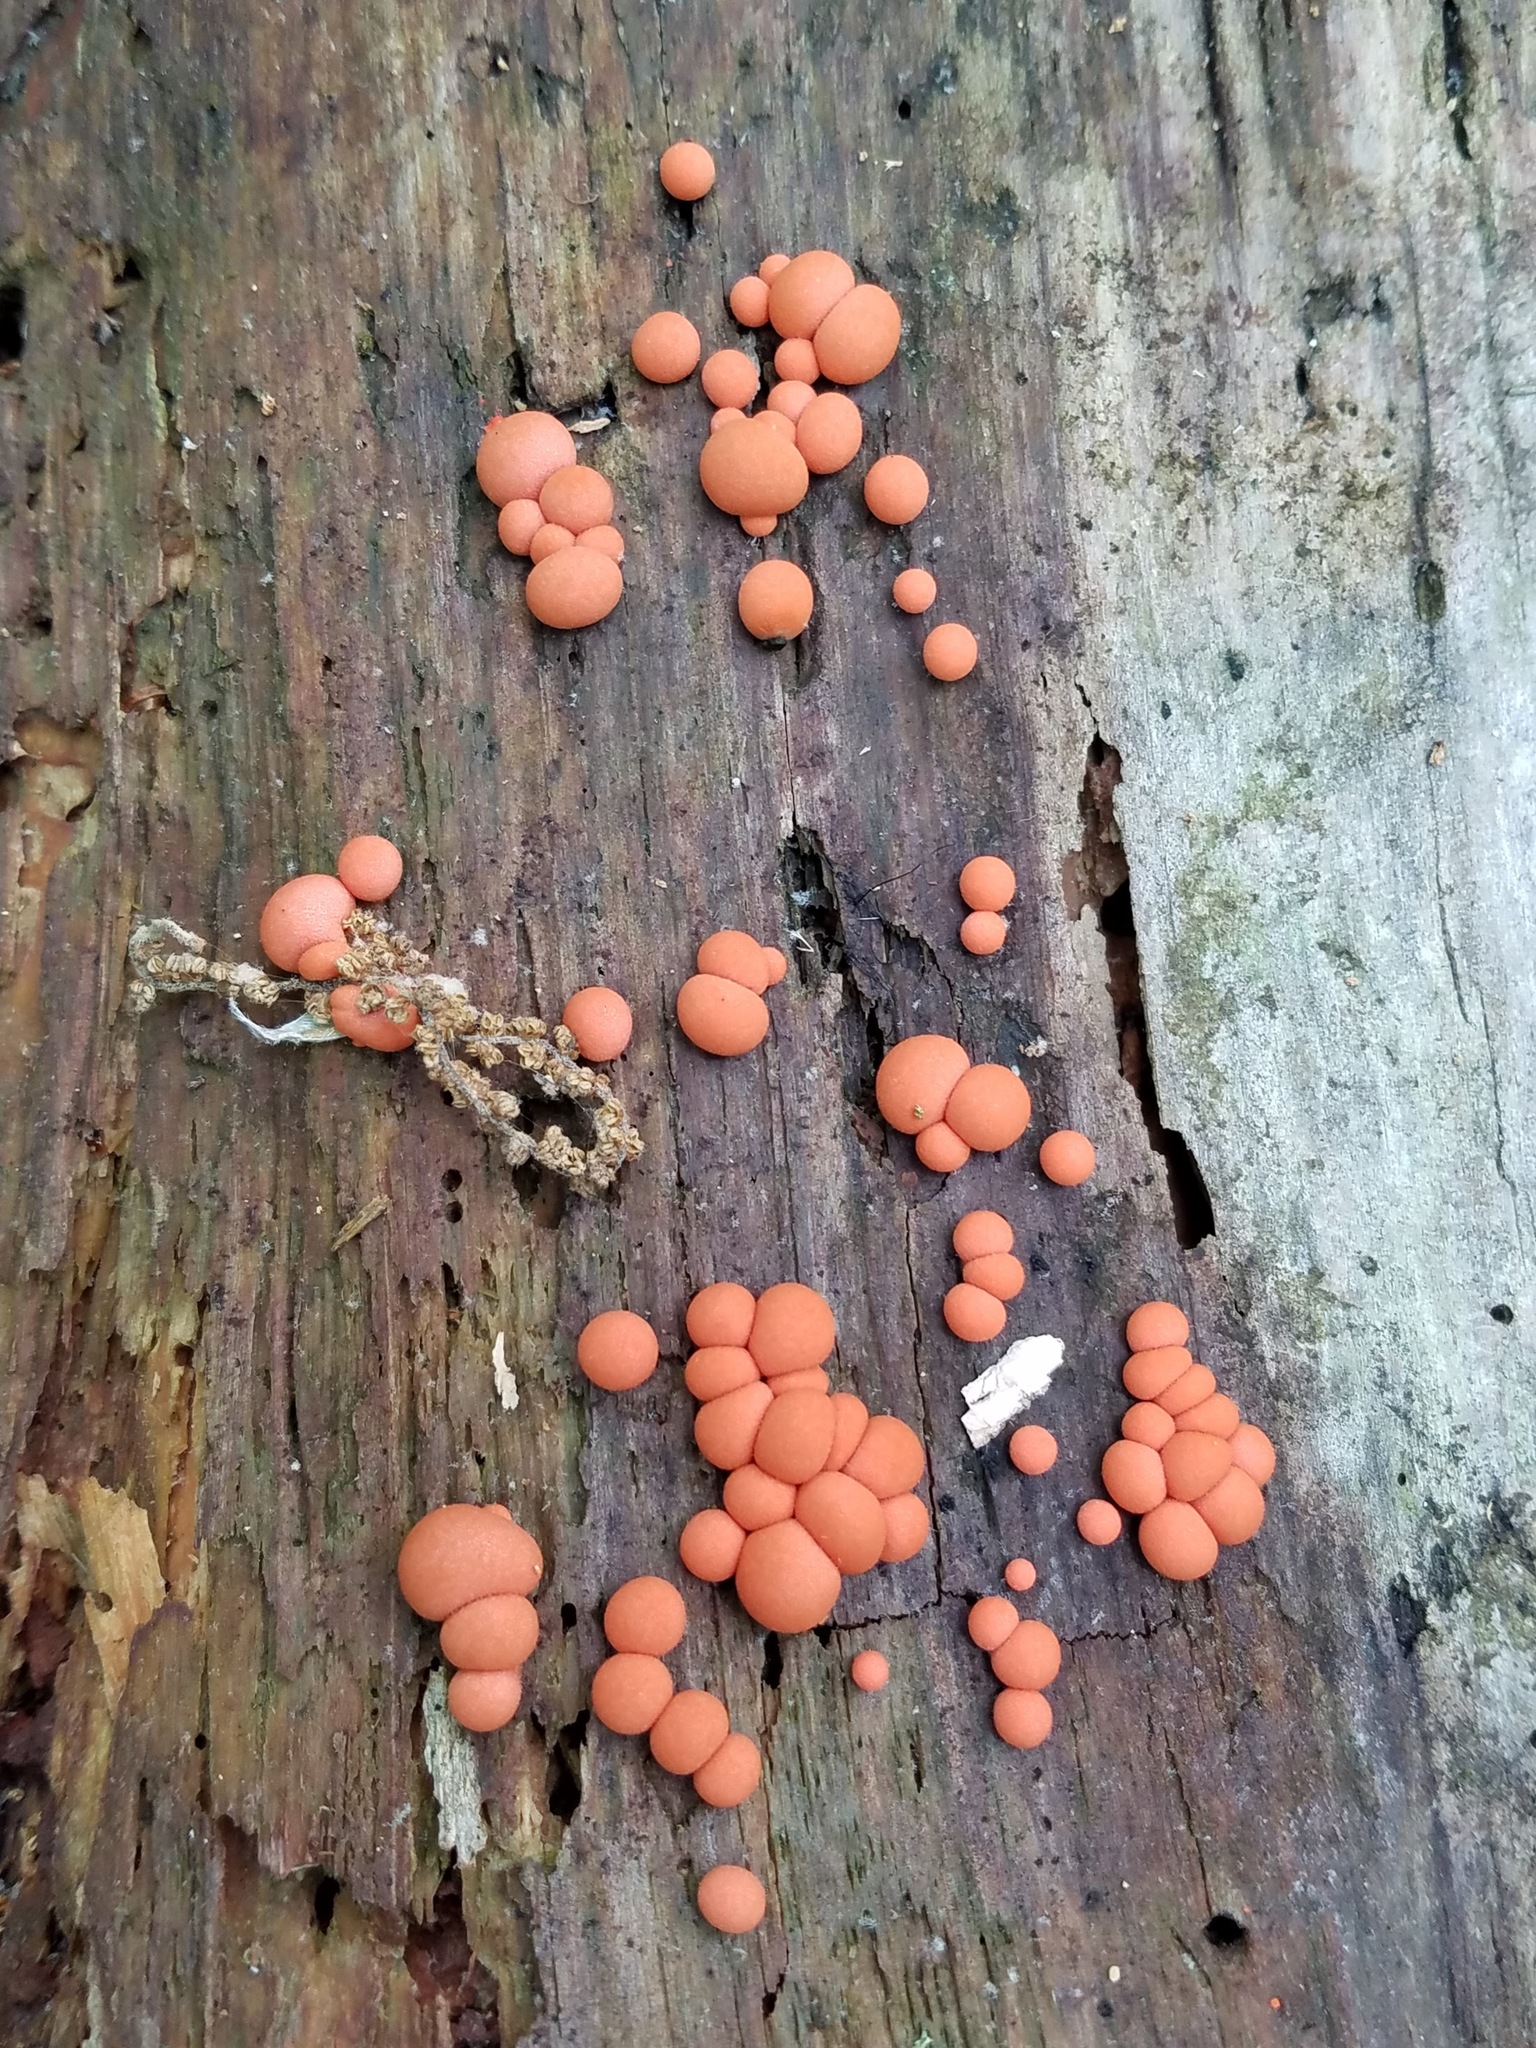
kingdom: Protozoa
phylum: Mycetozoa
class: Myxomycetes
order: Cribrariales
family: Tubiferaceae
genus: Lycogala
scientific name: Lycogala epidendrum
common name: Wolf's milk
